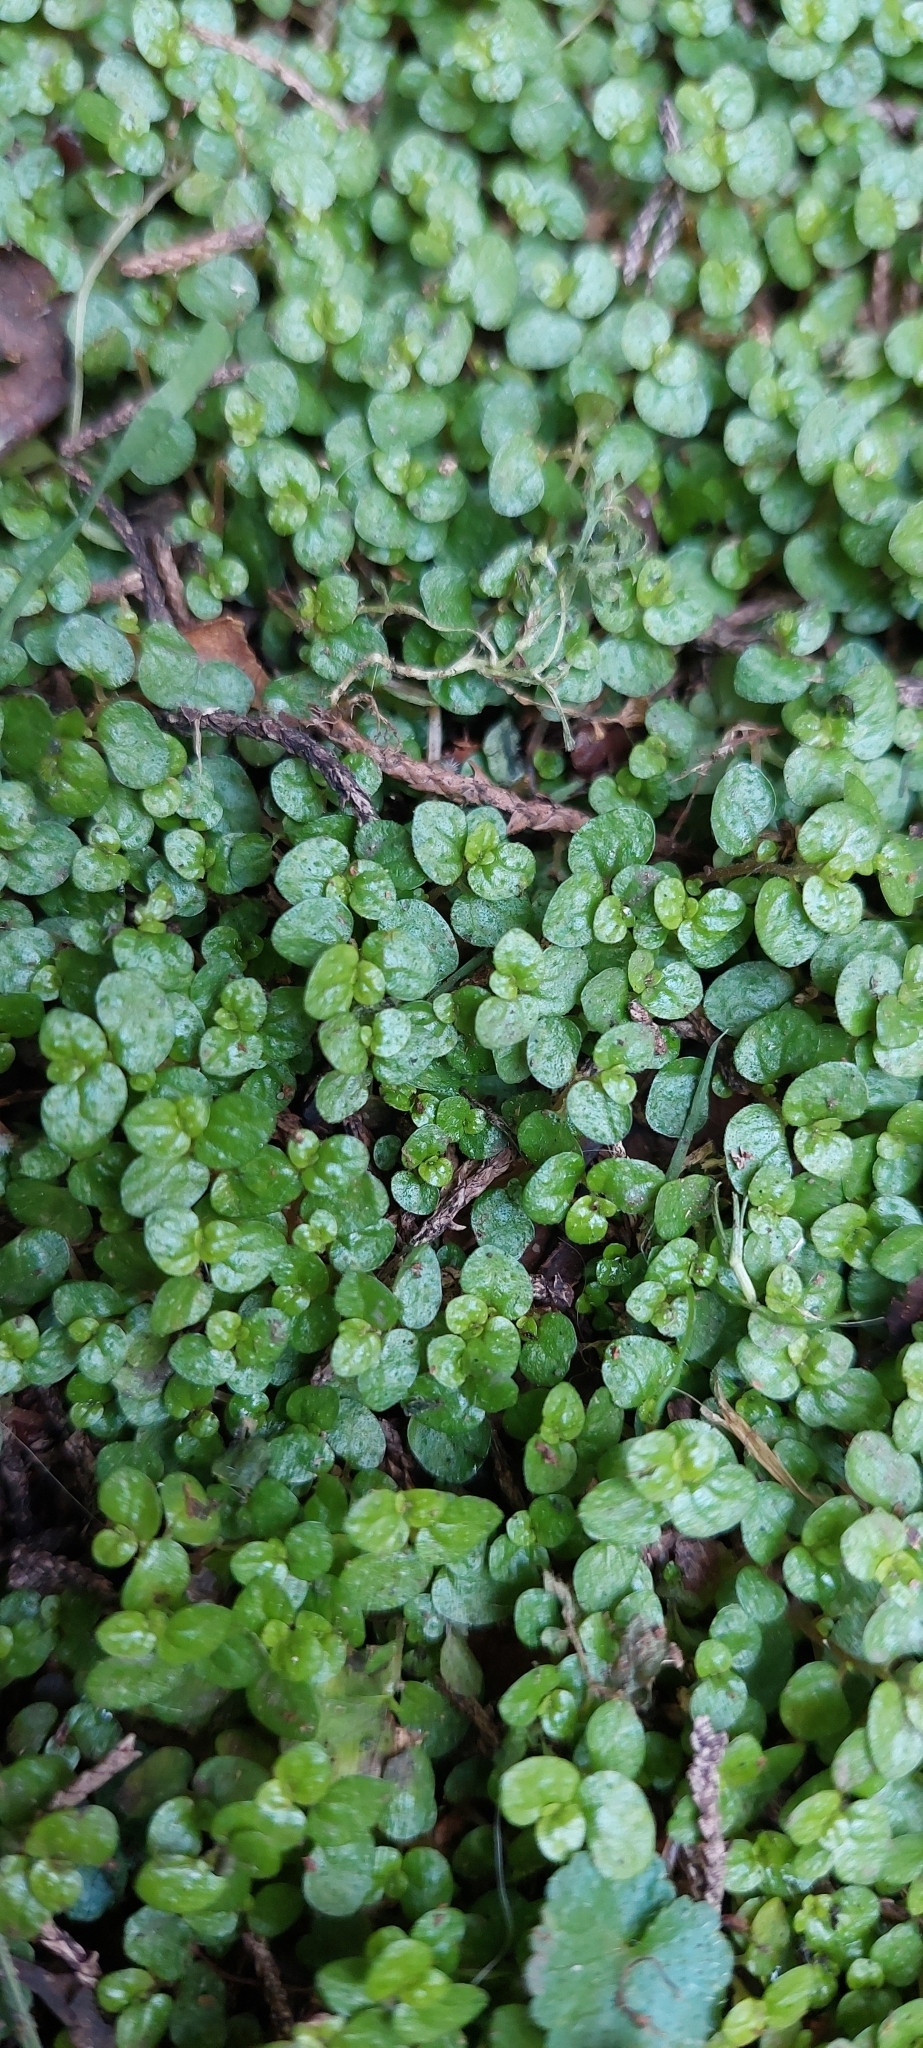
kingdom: Plantae
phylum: Tracheophyta
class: Magnoliopsida
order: Rosales
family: Urticaceae
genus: Soleirolia
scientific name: Soleirolia soleirolii
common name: Mind-your-own-business
